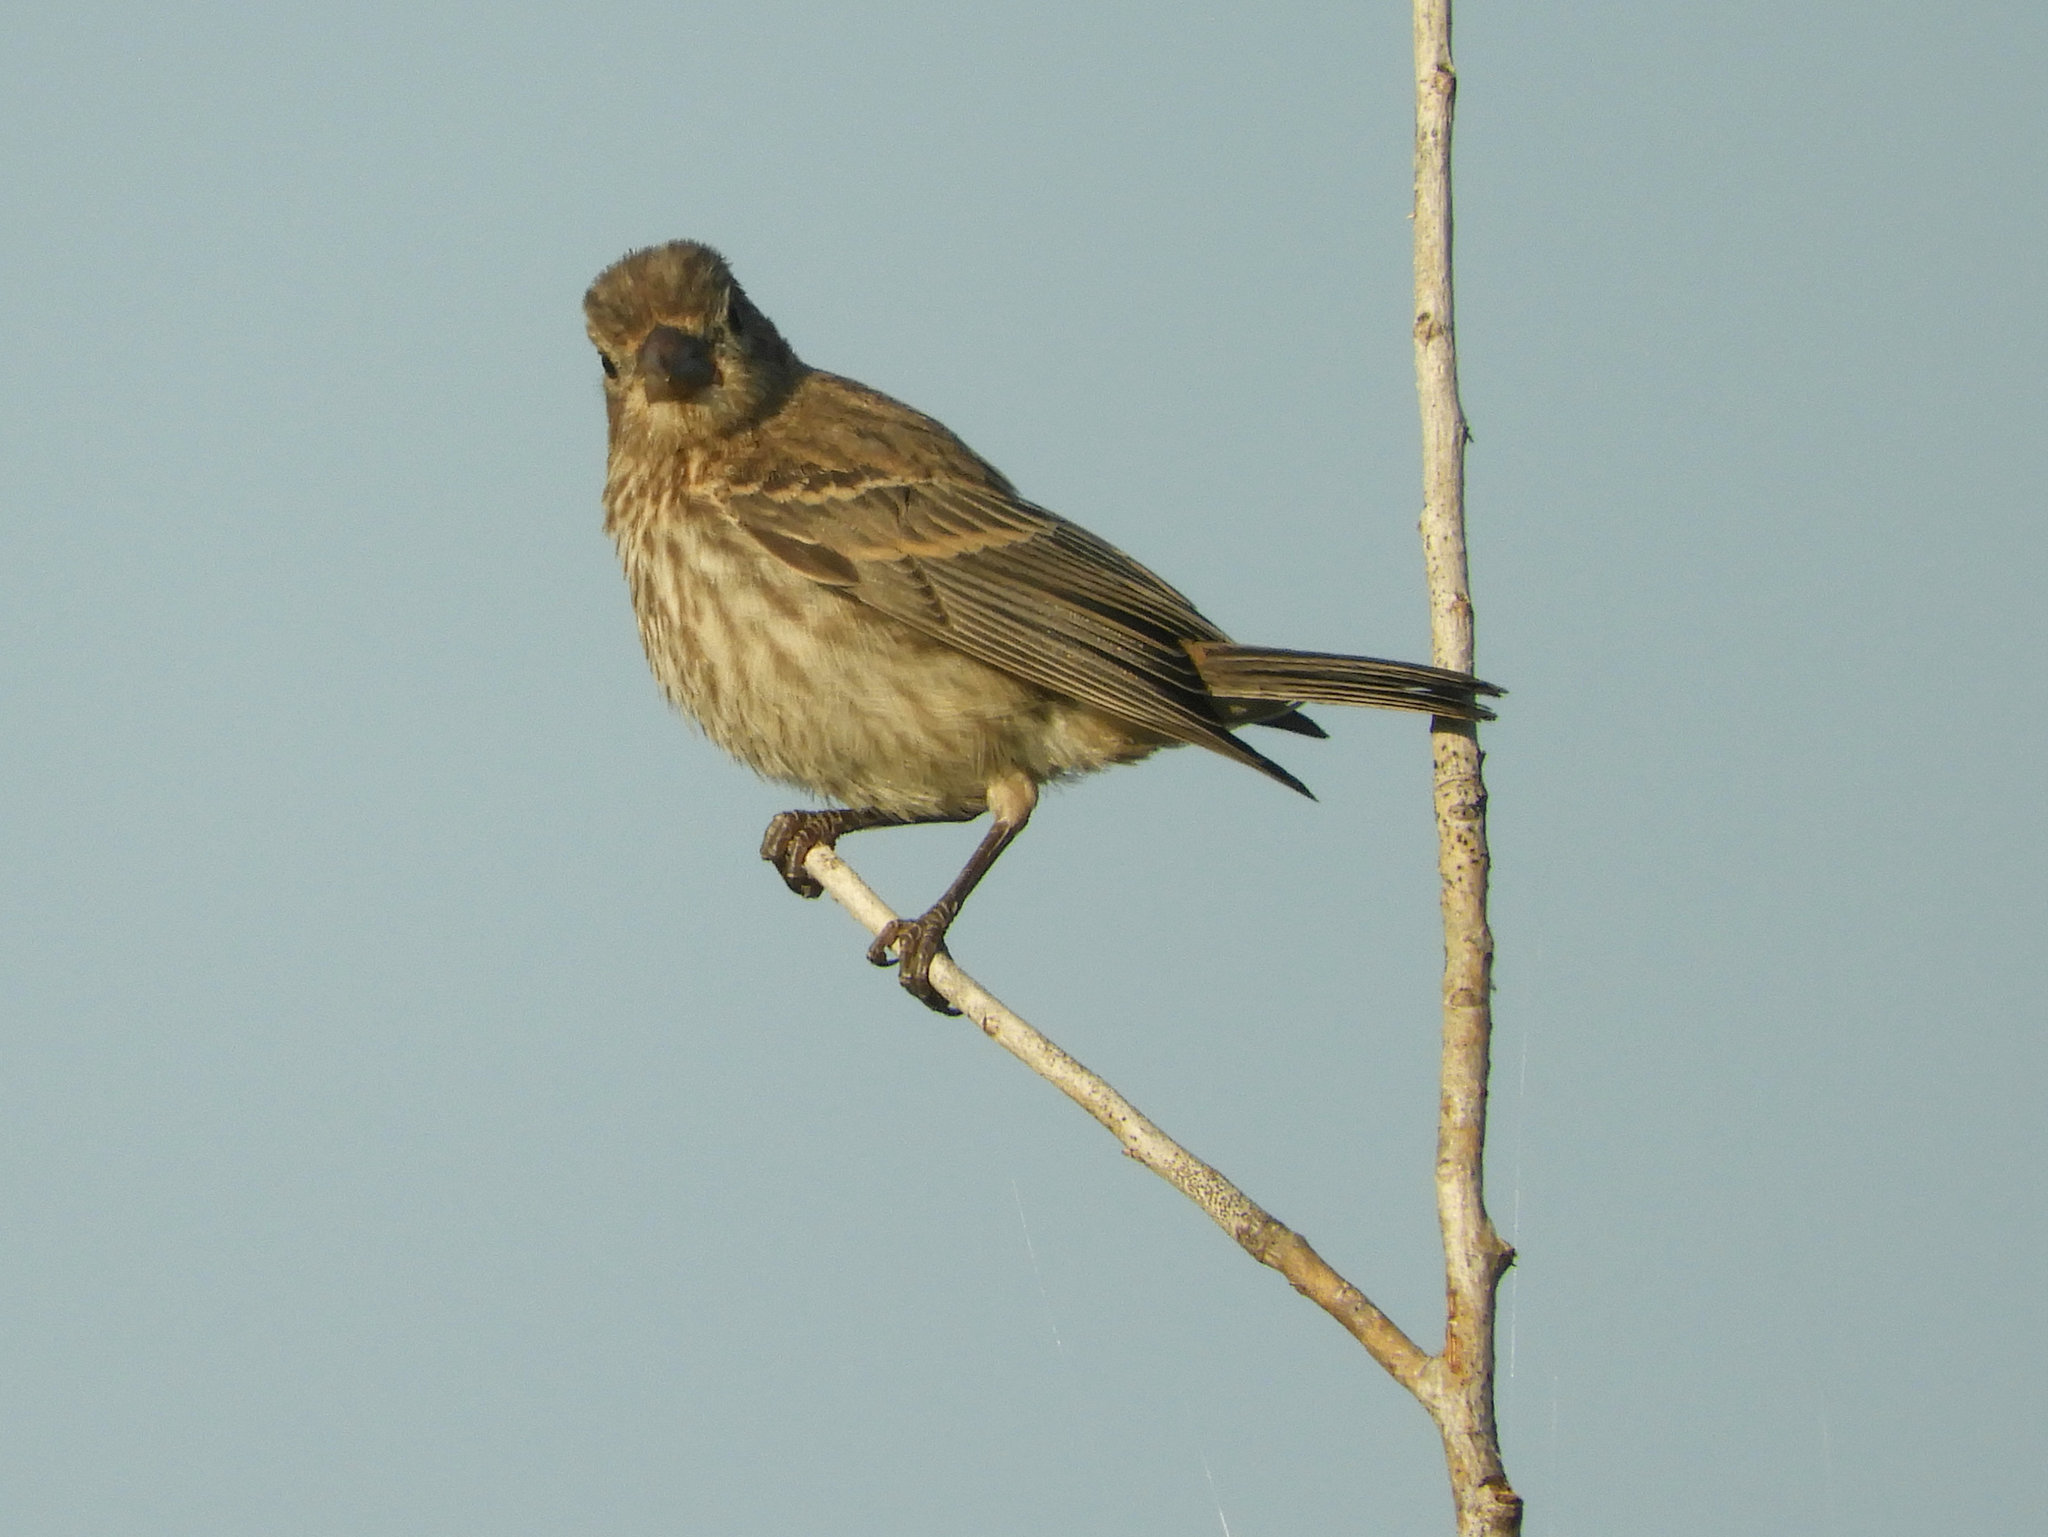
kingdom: Animalia
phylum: Chordata
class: Aves
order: Passeriformes
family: Fringillidae
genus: Haemorhous
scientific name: Haemorhous mexicanus
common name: House finch
